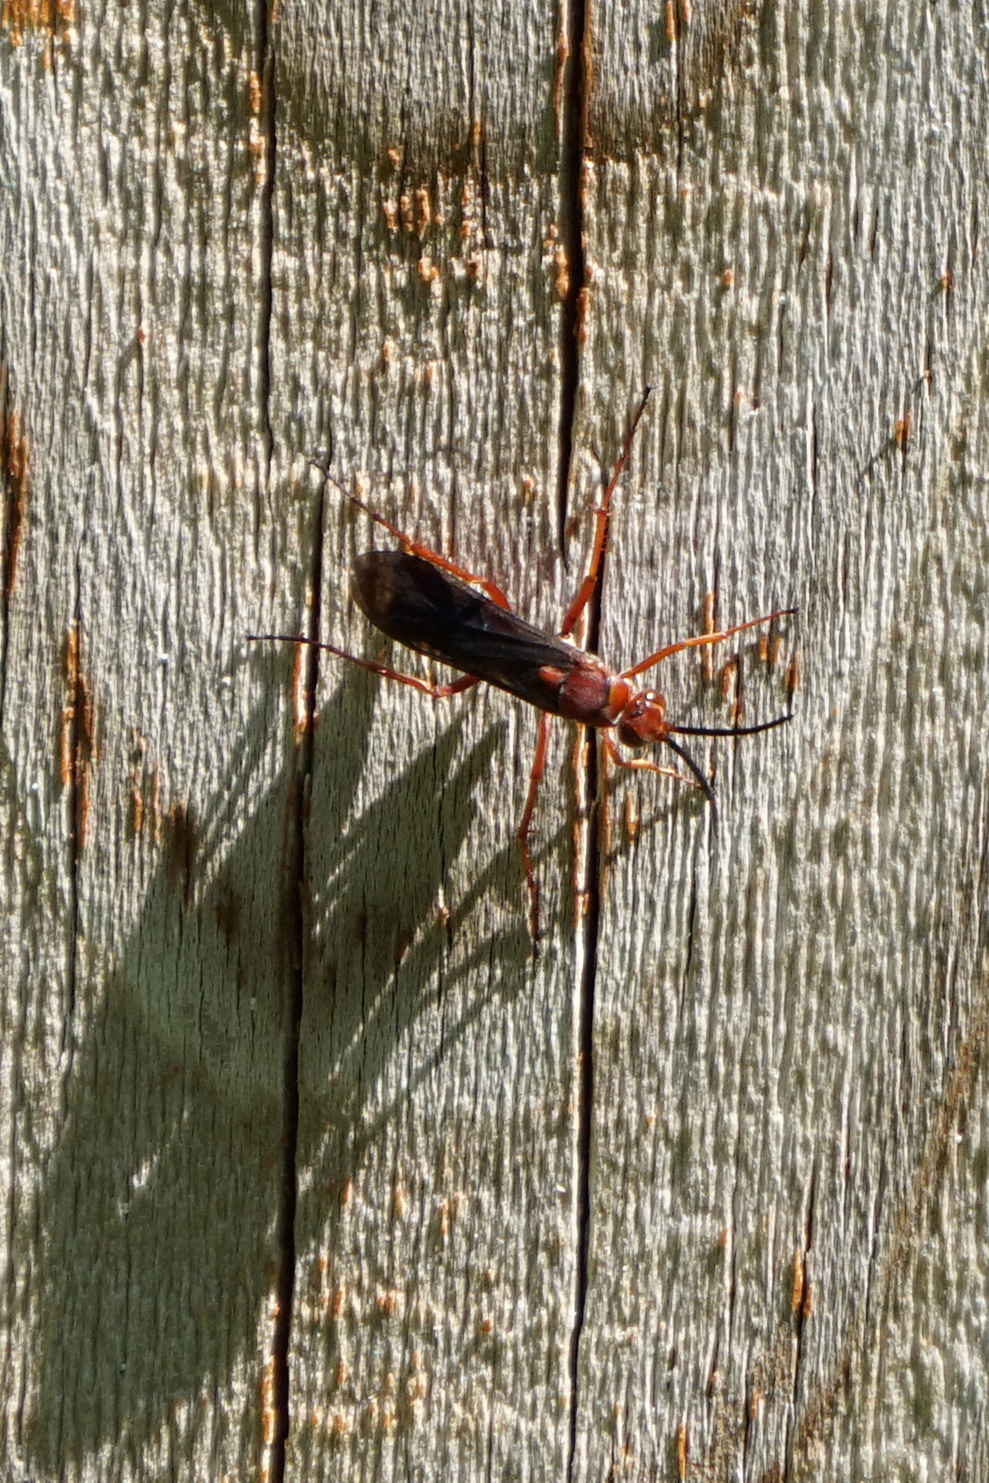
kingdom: Animalia
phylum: Arthropoda
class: Insecta
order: Hymenoptera
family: Pompilidae
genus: Tachypompilus
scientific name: Tachypompilus ferrugineus
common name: Rusty spider wasp
